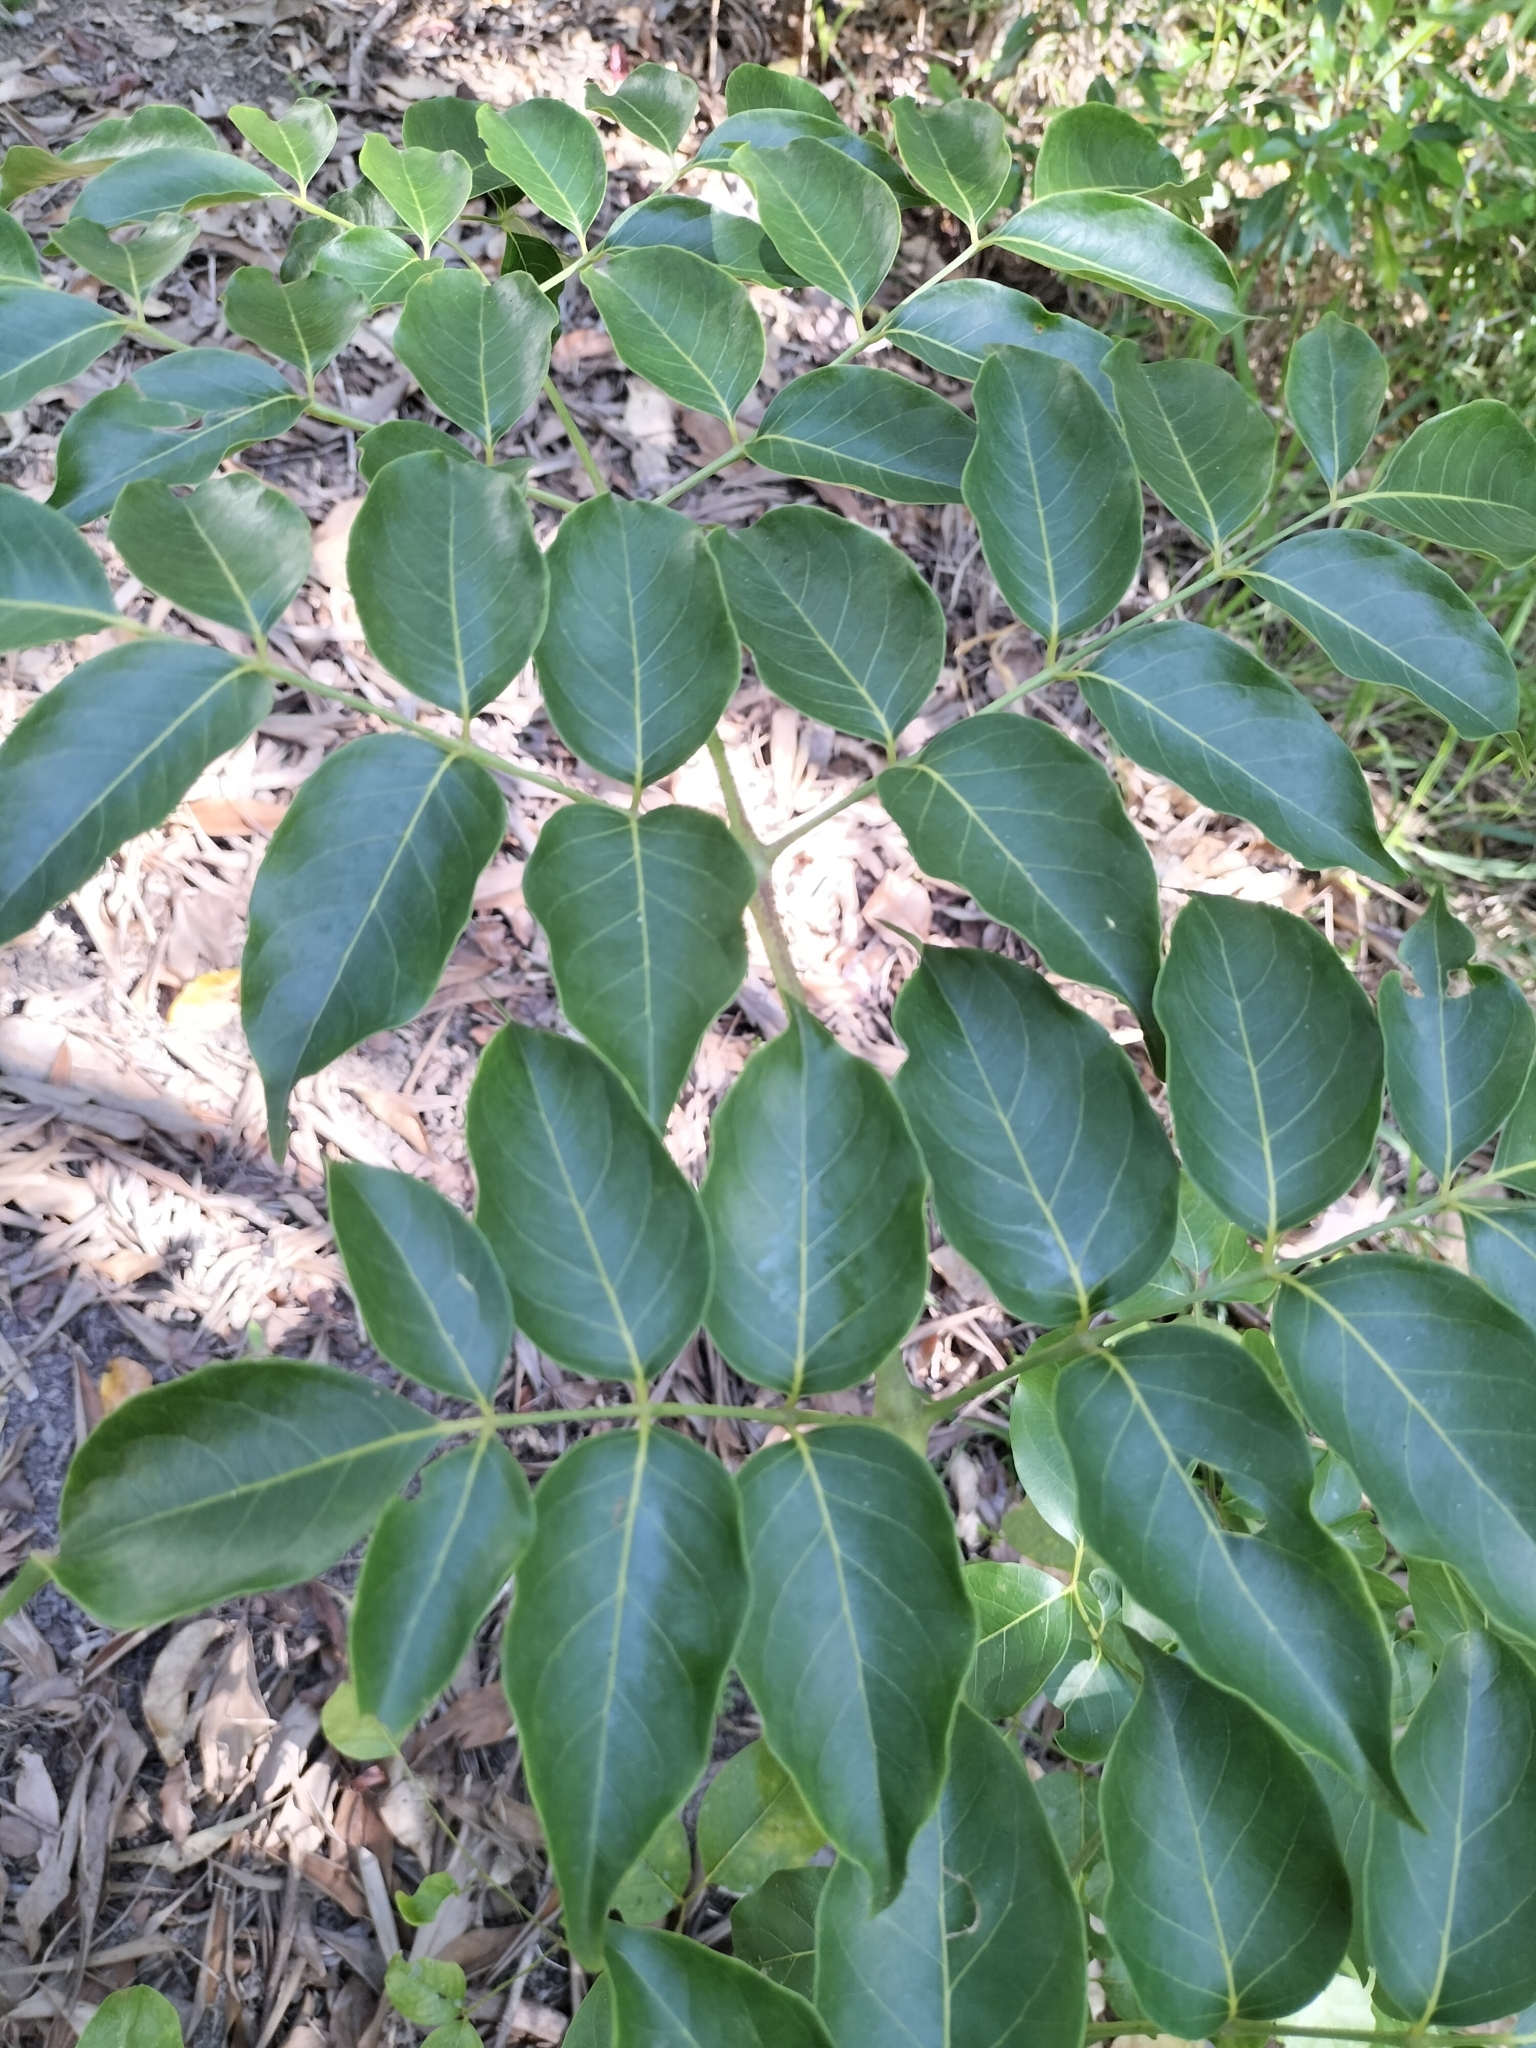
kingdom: Plantae
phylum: Tracheophyta
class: Magnoliopsida
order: Apiales
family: Araliaceae
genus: Polyscias
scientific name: Polyscias elegans
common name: Mowbulan whitewood
